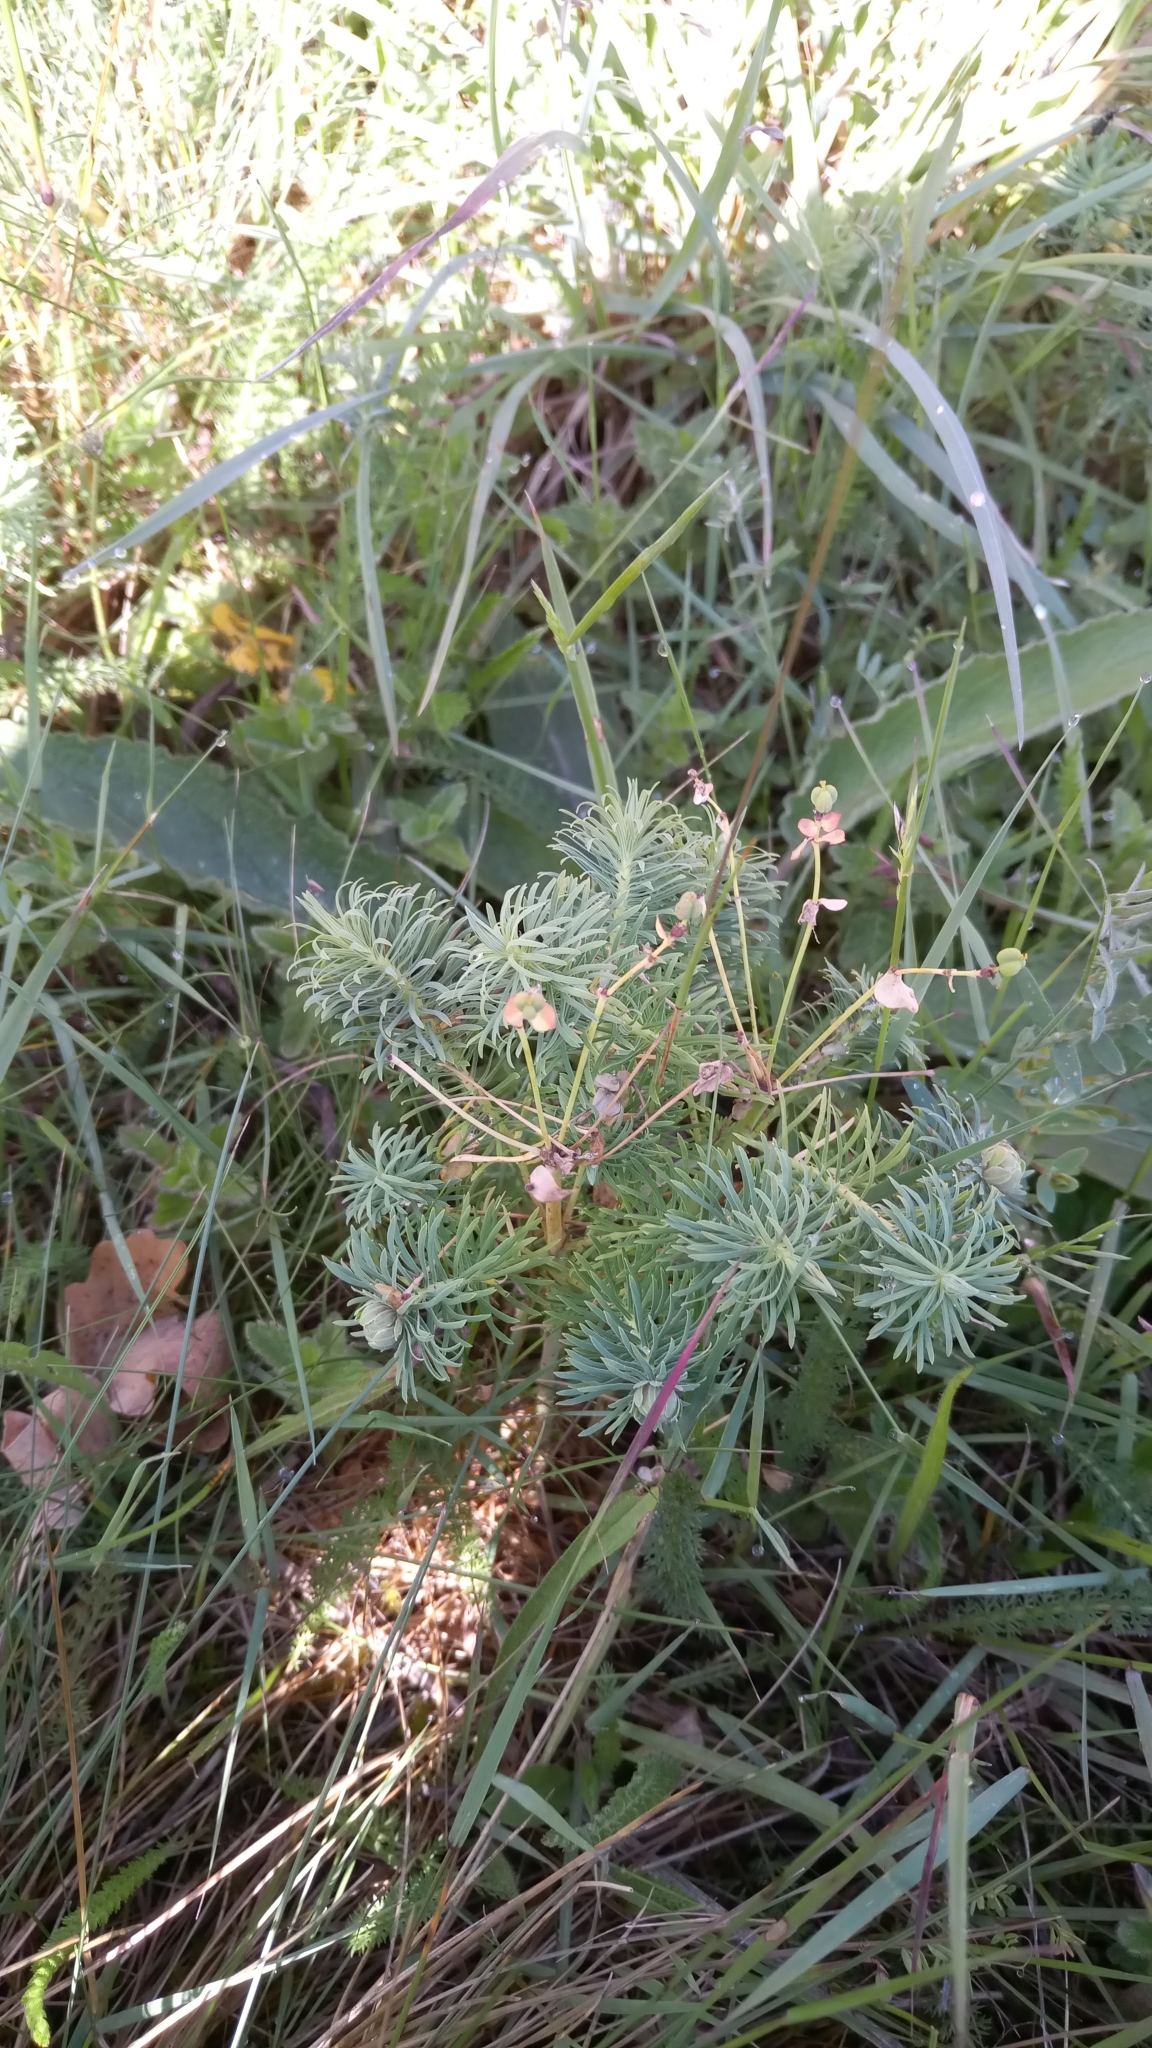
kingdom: Plantae
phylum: Tracheophyta
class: Magnoliopsida
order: Malpighiales
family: Euphorbiaceae
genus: Euphorbia
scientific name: Euphorbia cyparissias
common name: Cypress spurge
